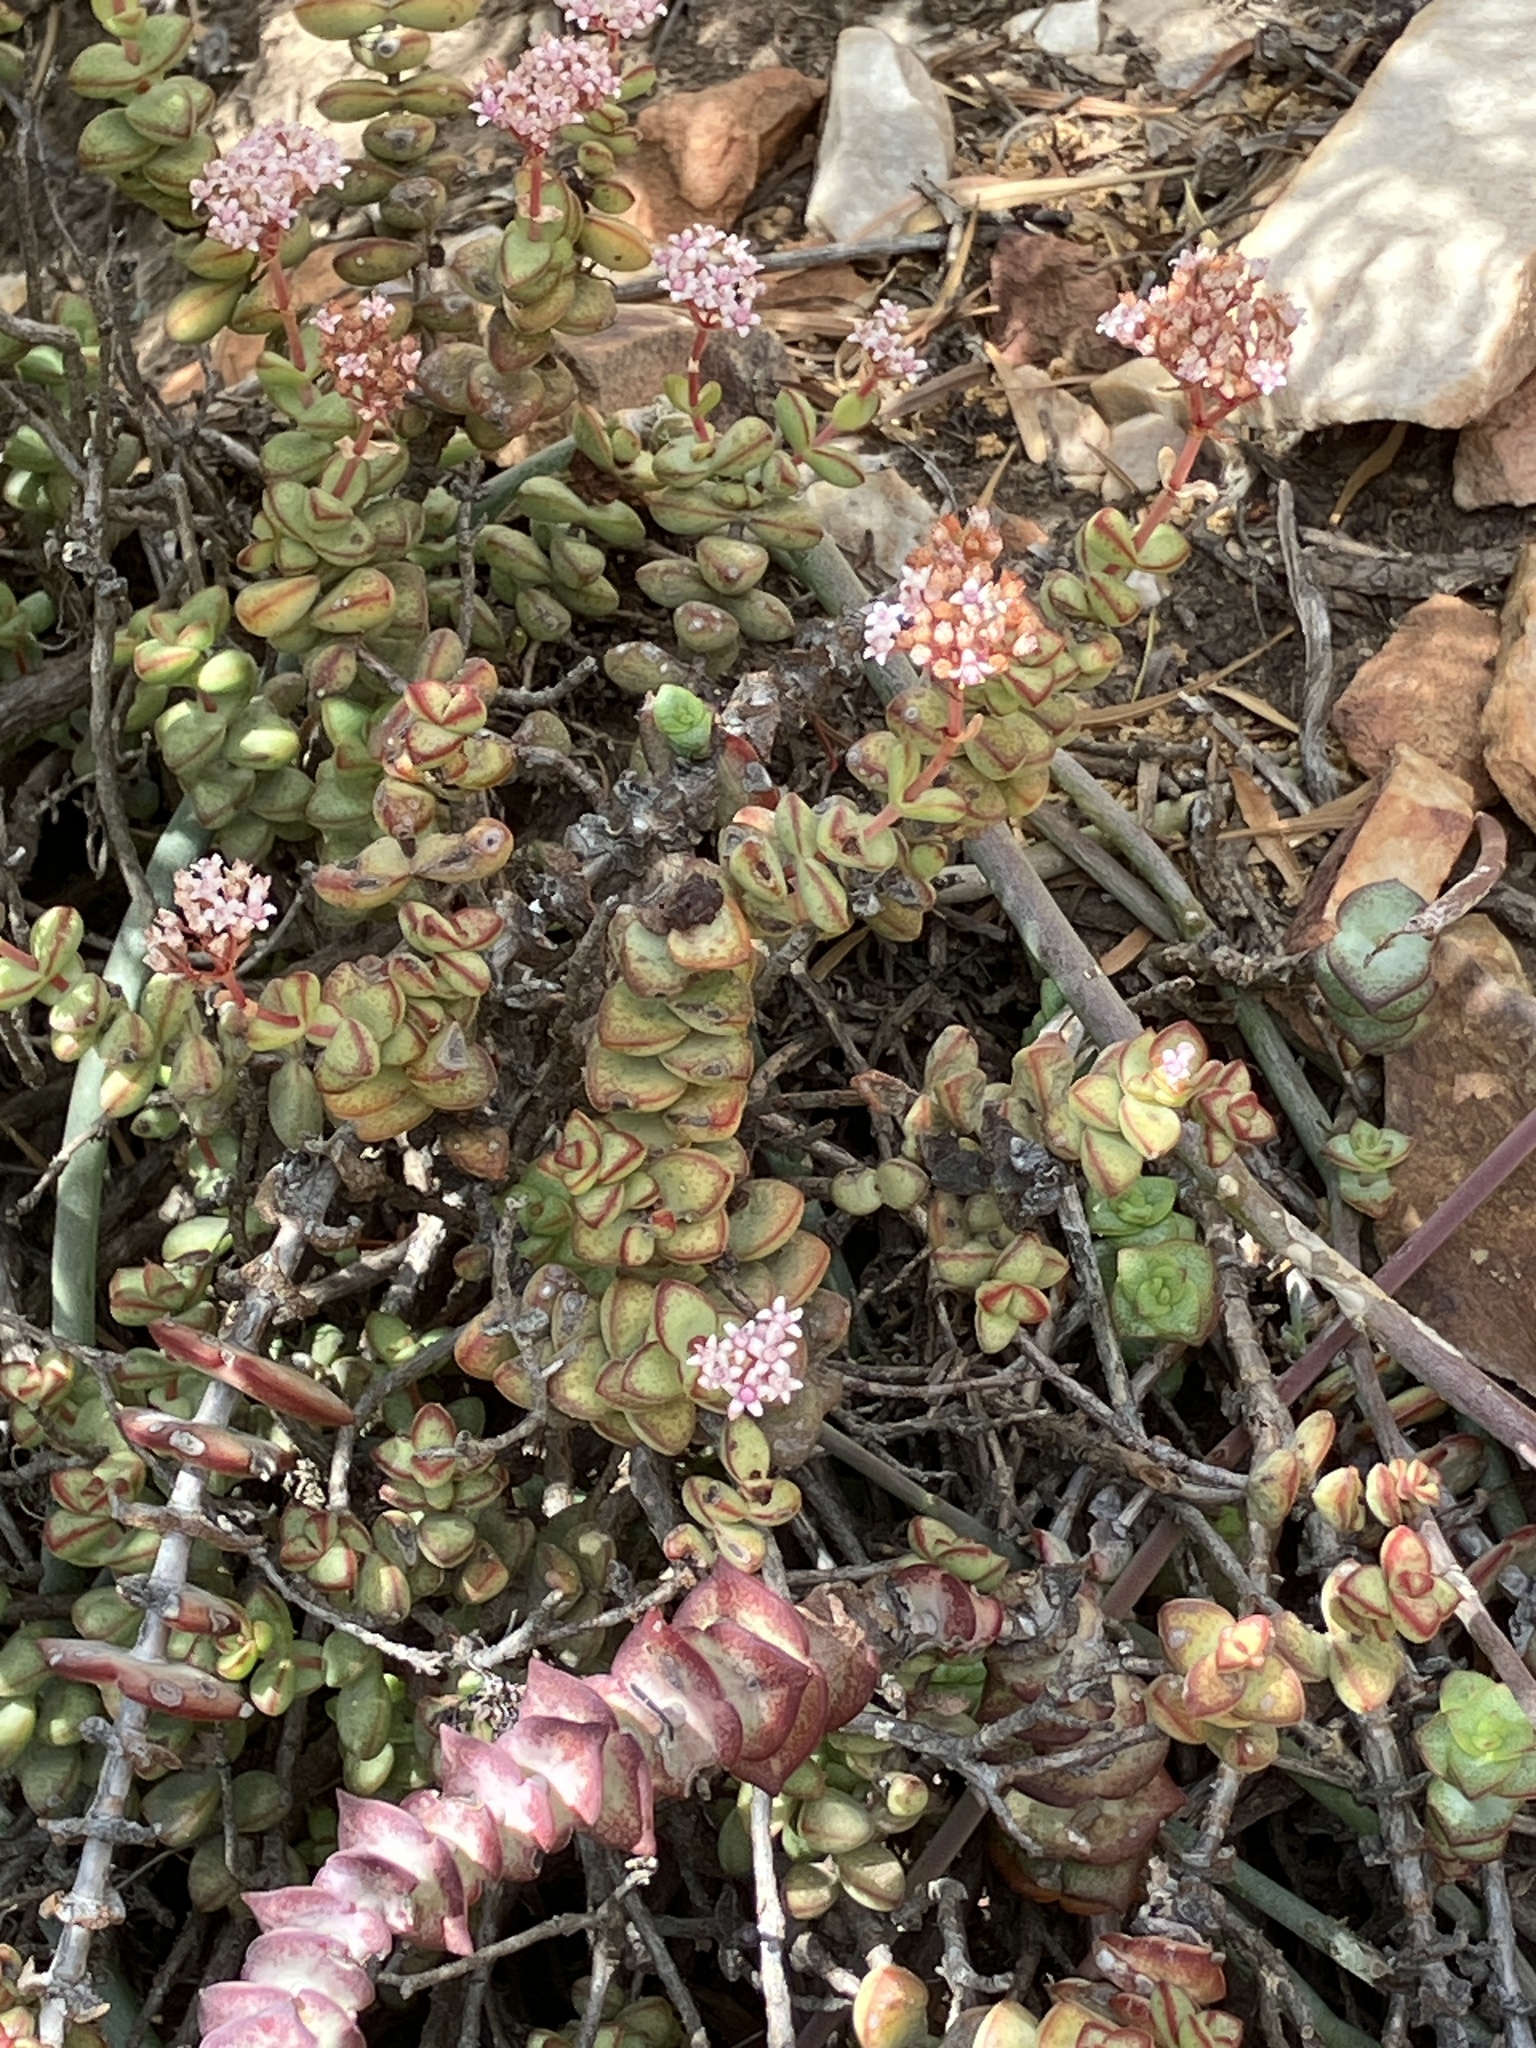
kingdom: Plantae
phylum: Tracheophyta
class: Magnoliopsida
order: Saxifragales
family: Crassulaceae
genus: Crassula
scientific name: Crassula rupestris
